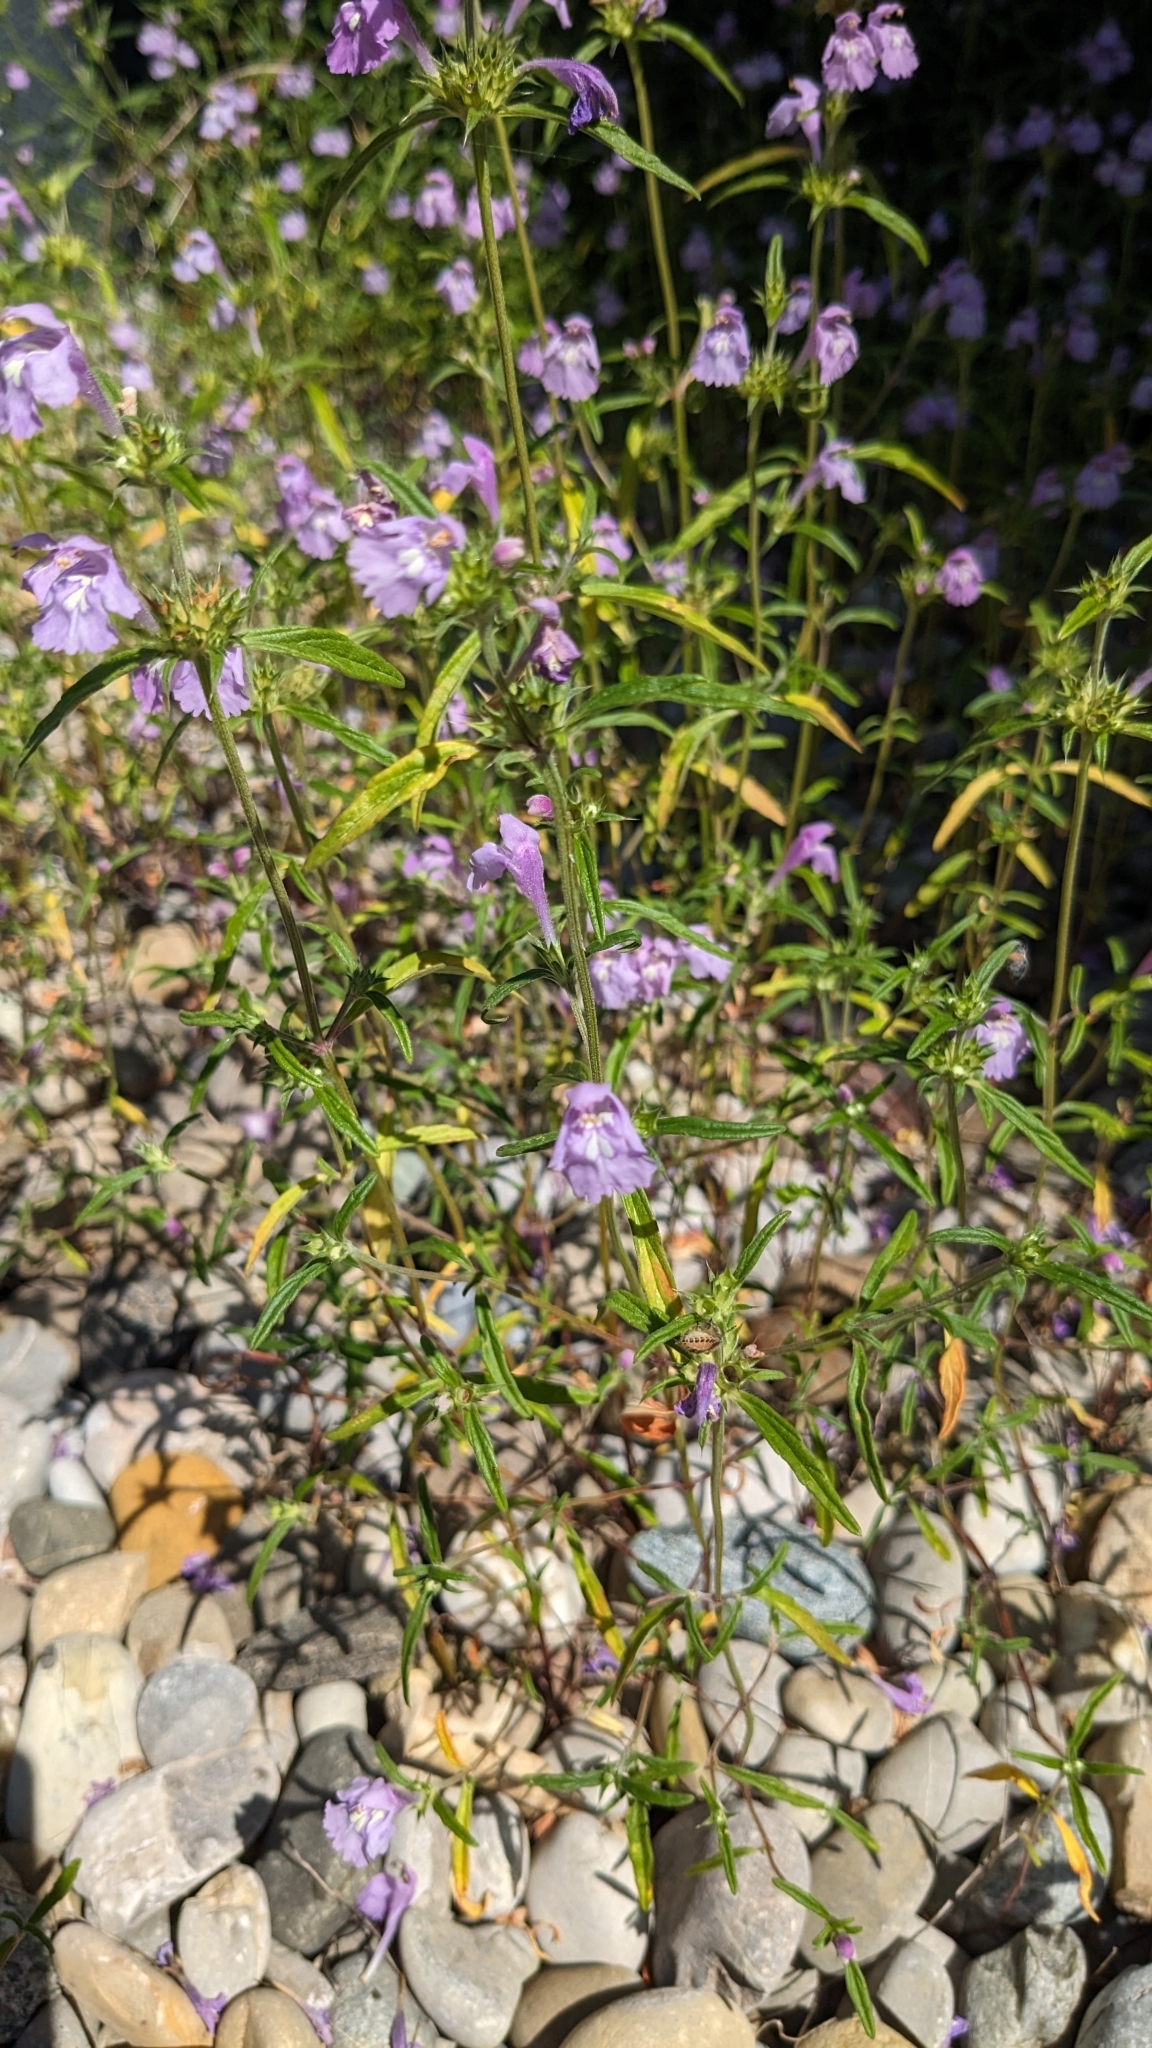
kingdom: Plantae
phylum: Tracheophyta
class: Magnoliopsida
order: Lamiales
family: Lamiaceae
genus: Galeopsis
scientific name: Galeopsis angustifolia
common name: Red hemp-nettle
